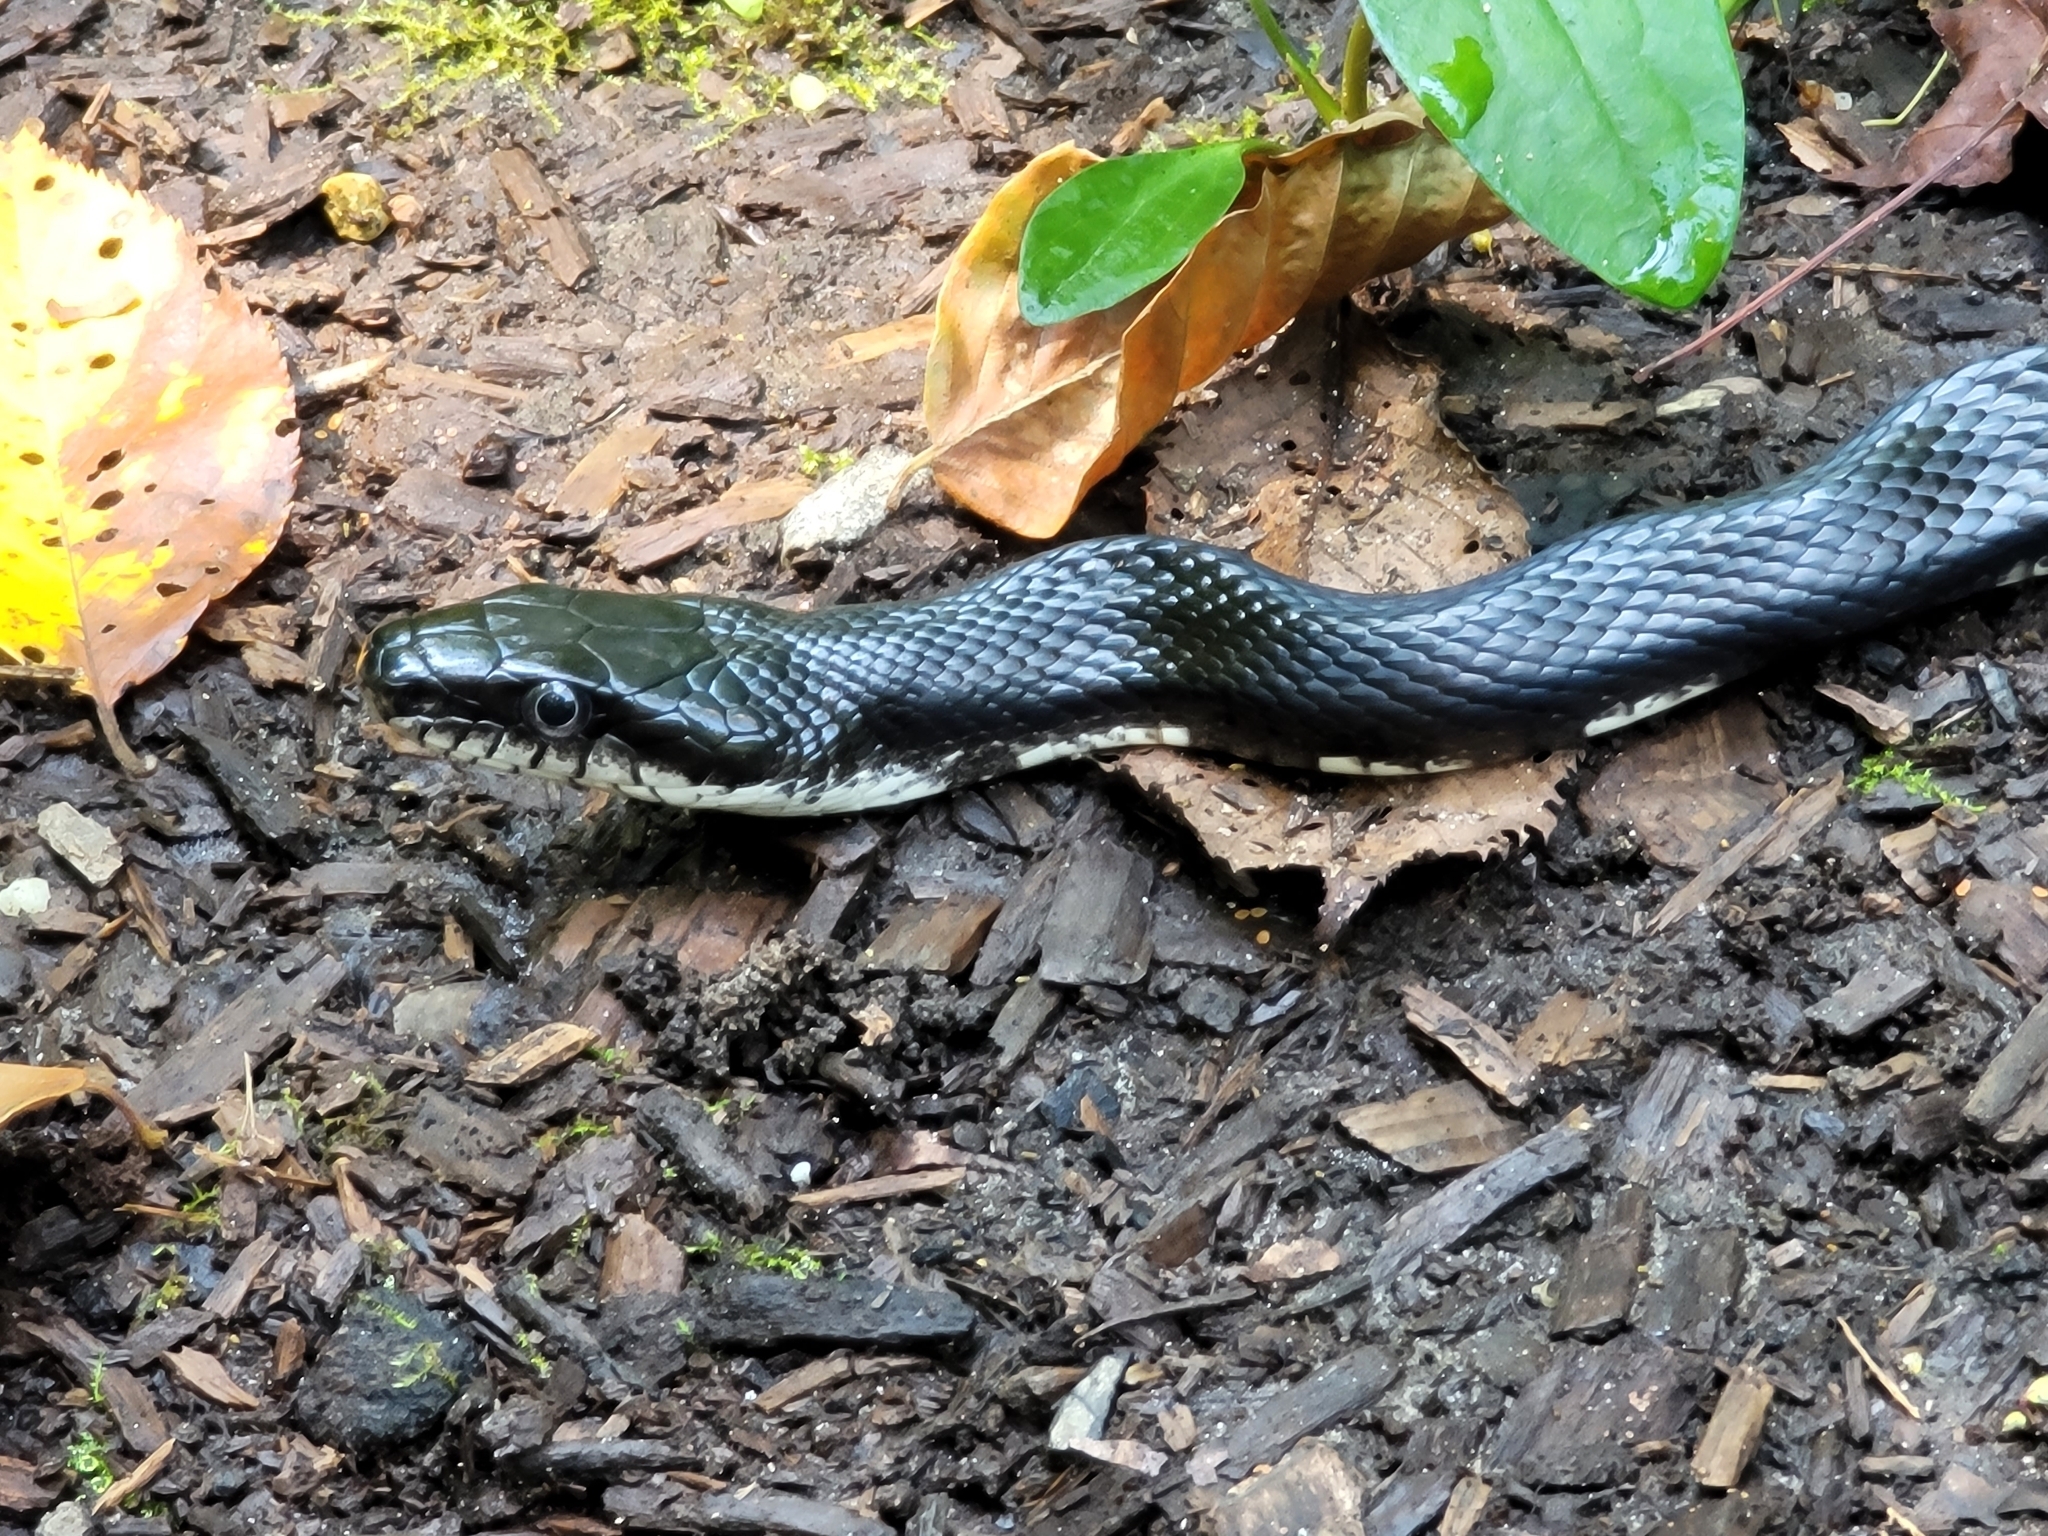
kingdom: Animalia
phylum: Chordata
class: Squamata
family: Colubridae
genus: Pantherophis
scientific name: Pantherophis alleghaniensis
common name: Eastern rat snake
